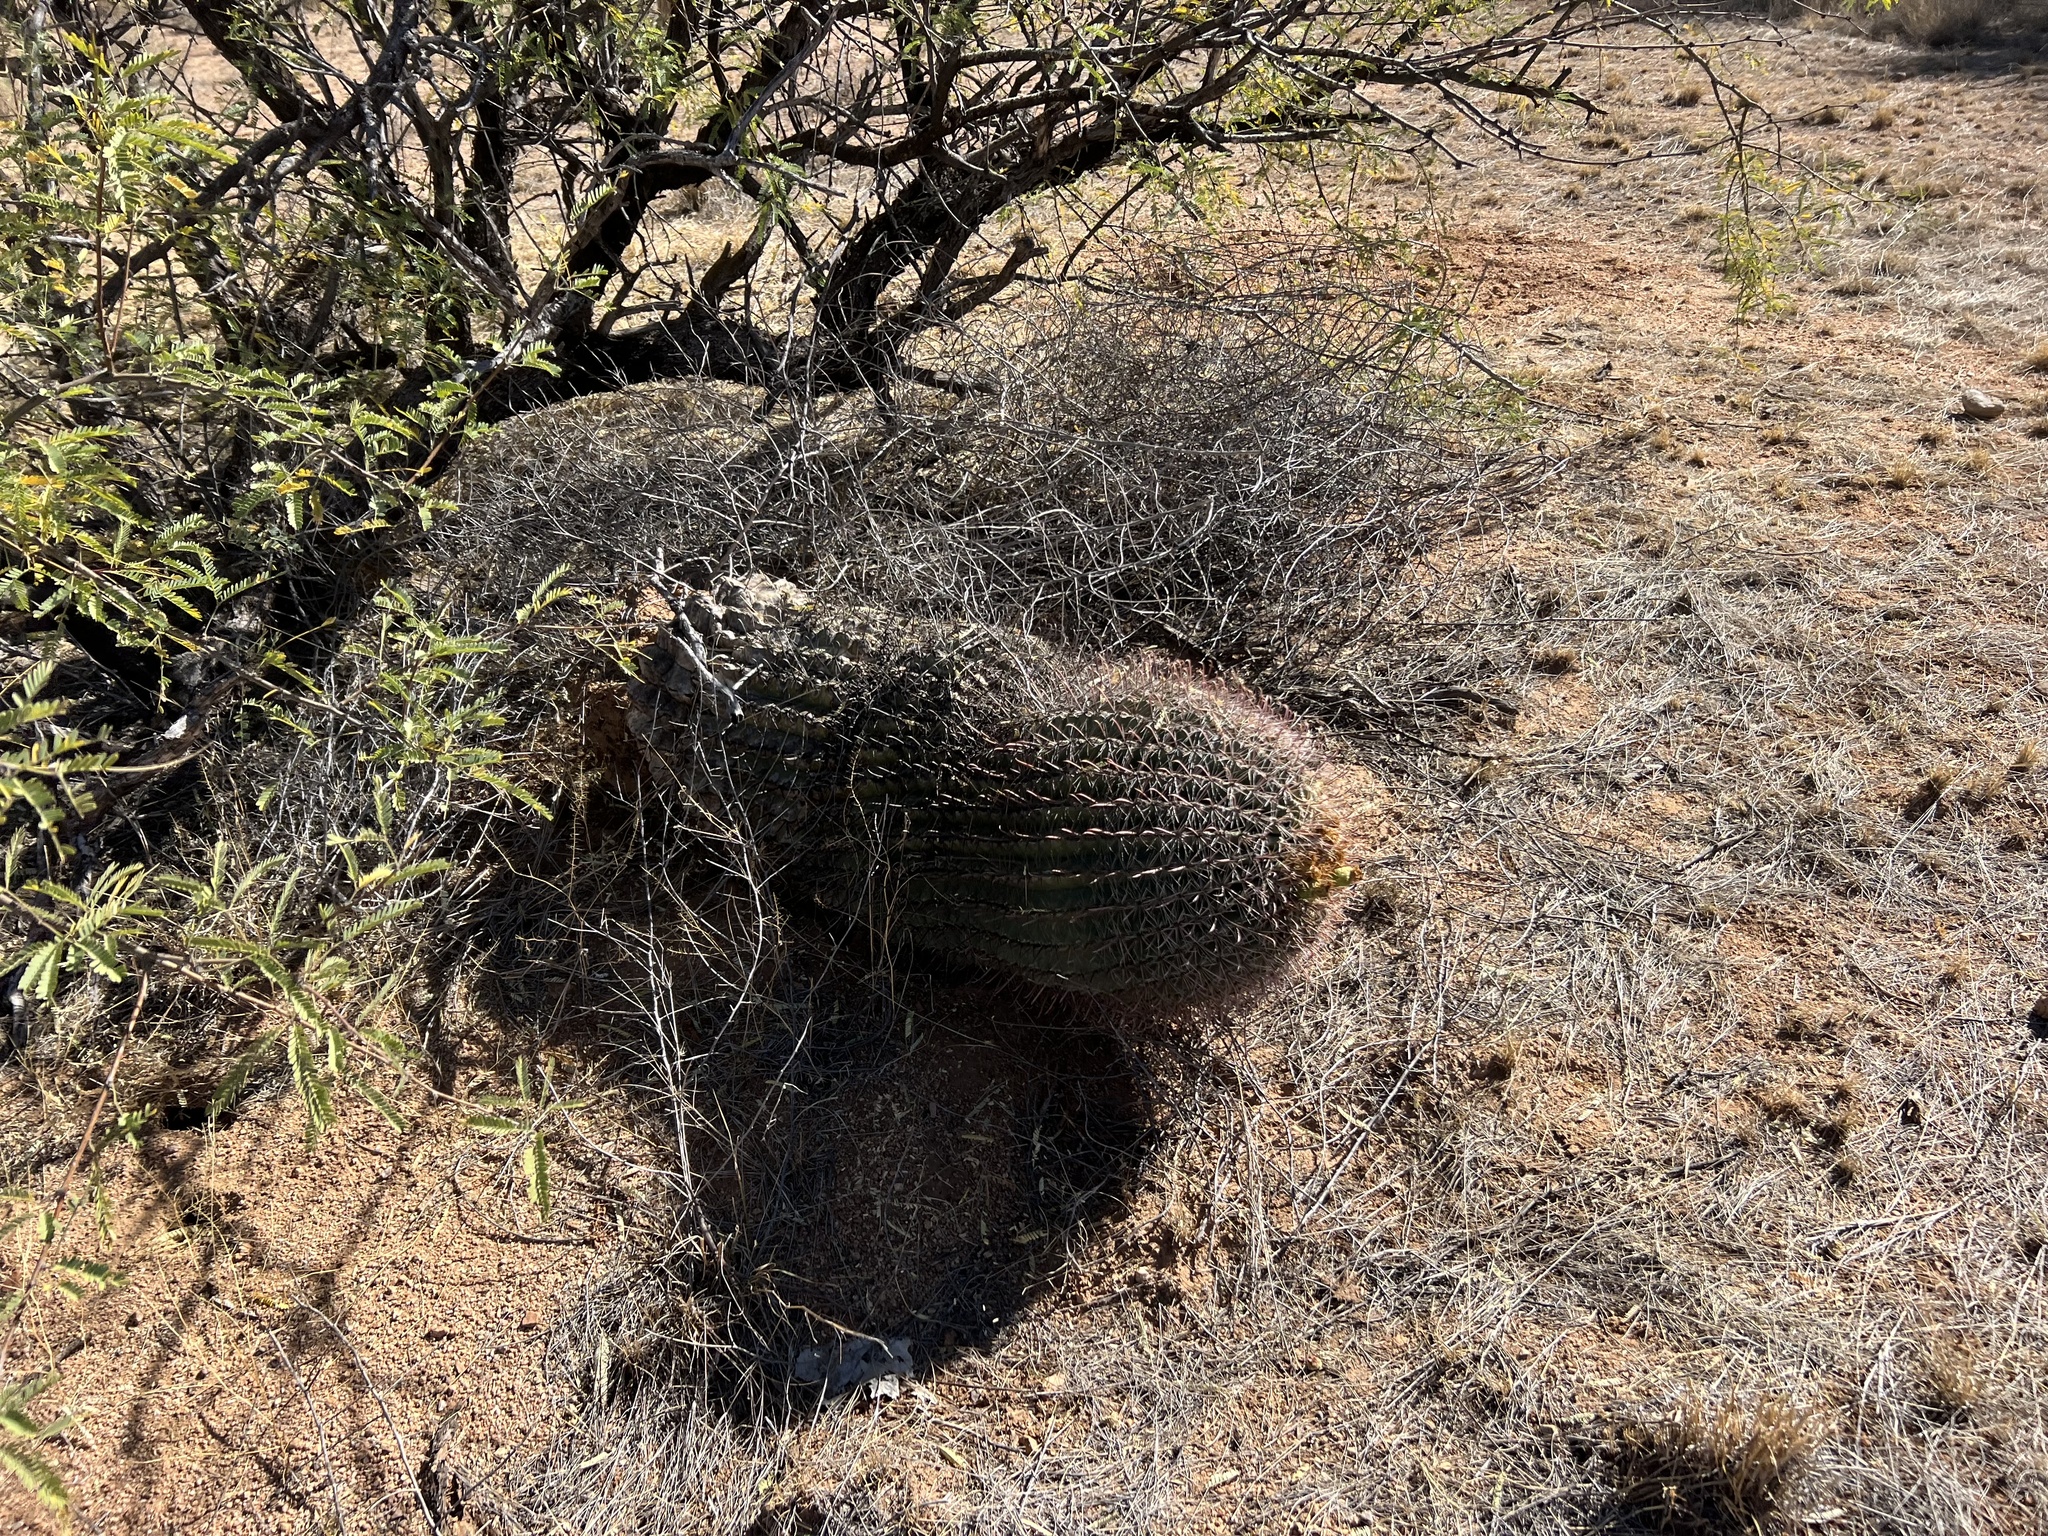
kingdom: Plantae
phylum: Tracheophyta
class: Magnoliopsida
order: Caryophyllales
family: Cactaceae
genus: Ferocactus
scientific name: Ferocactus wislizeni
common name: Candy barrel cactus
